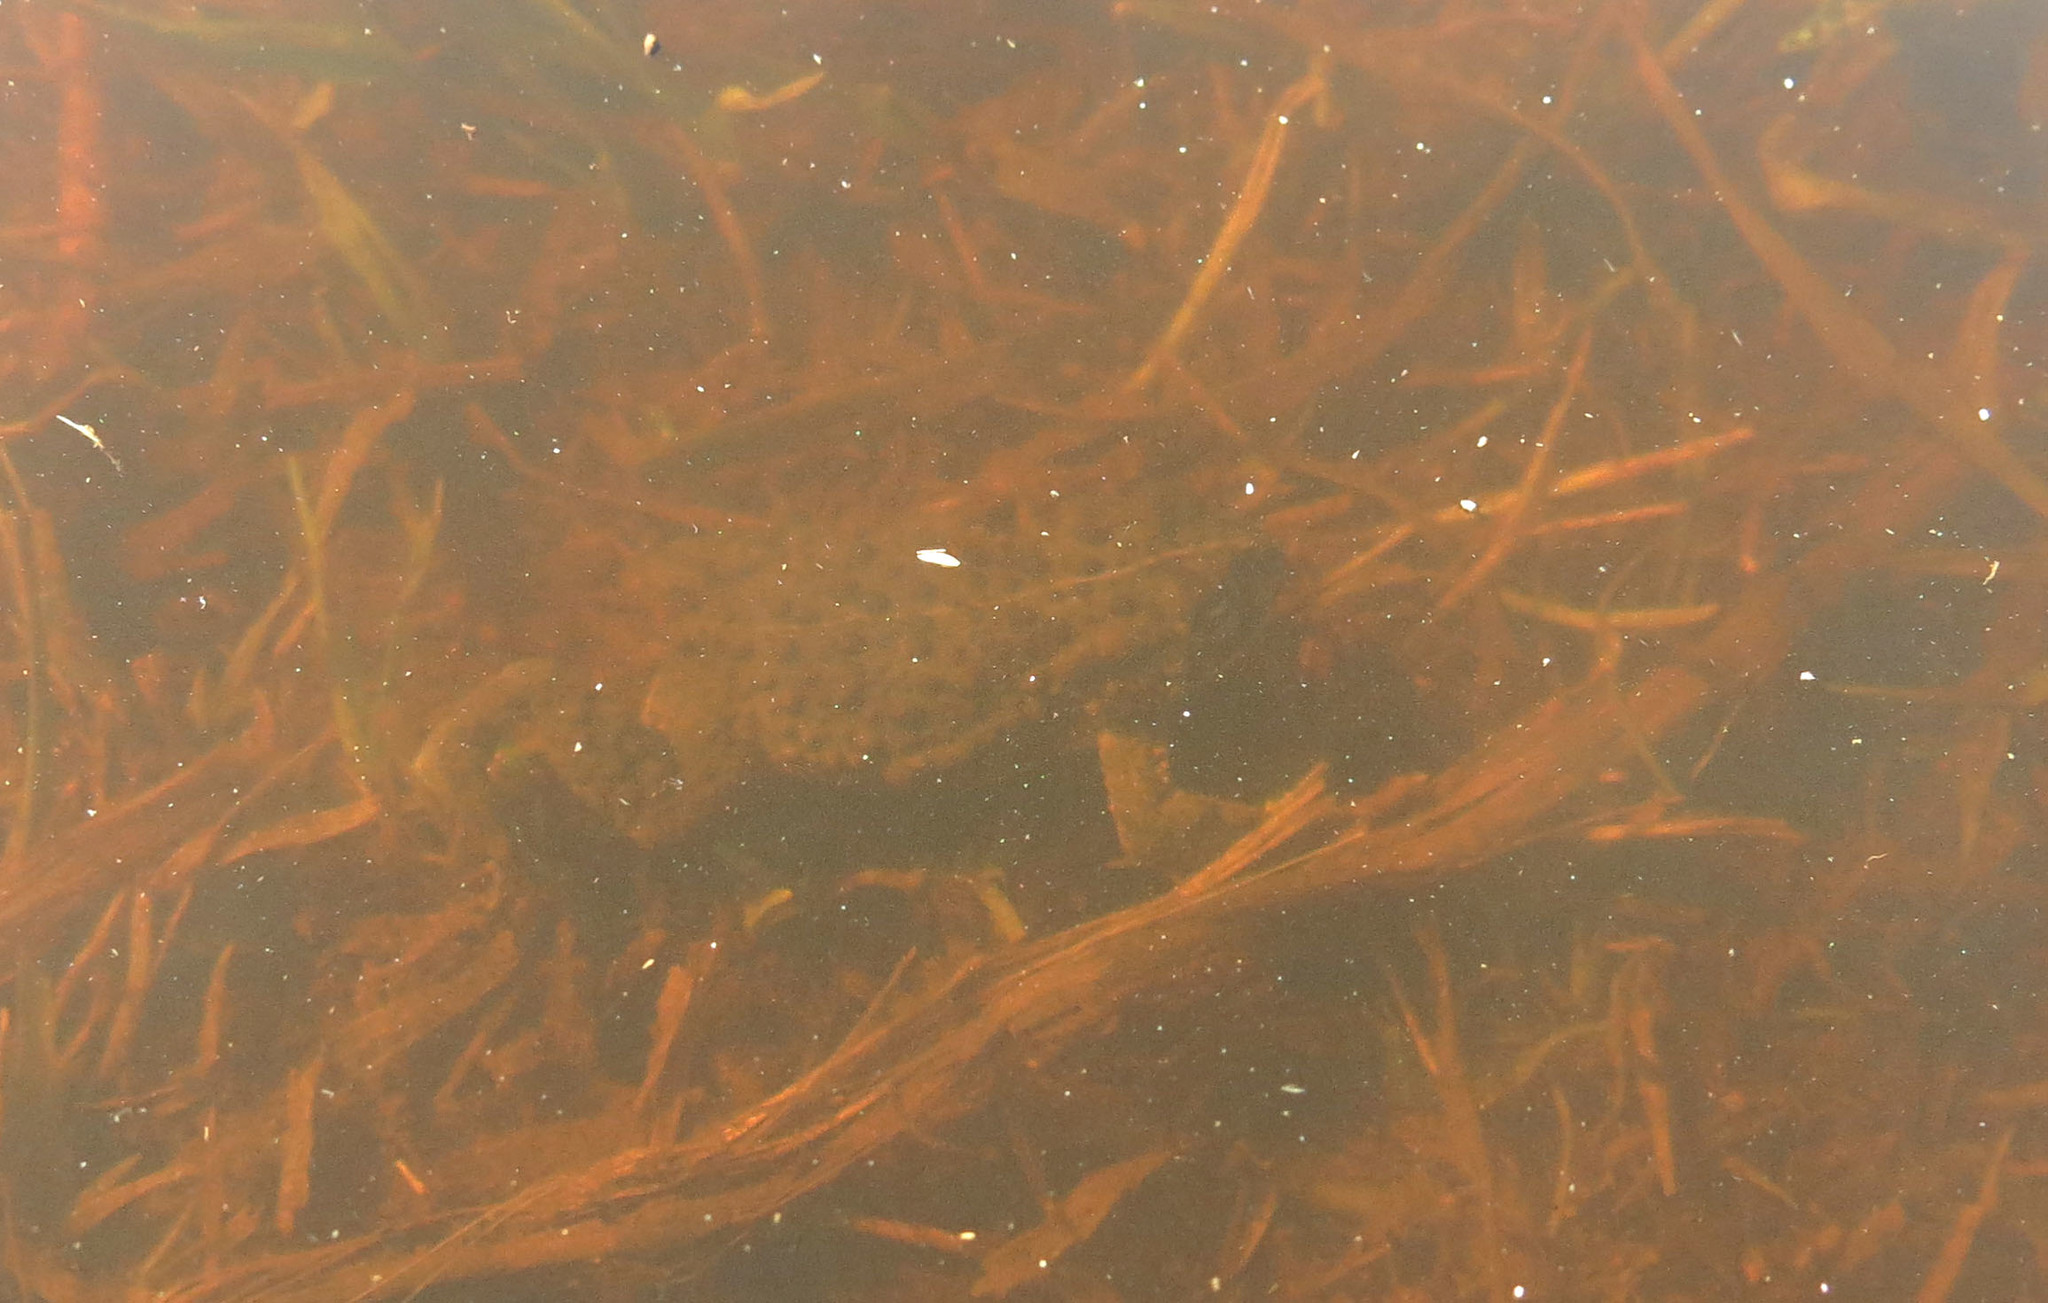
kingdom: Animalia
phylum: Chordata
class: Amphibia
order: Anura
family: Bufonidae
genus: Vandijkophrynus
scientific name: Vandijkophrynus angusticeps
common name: Sand toad
